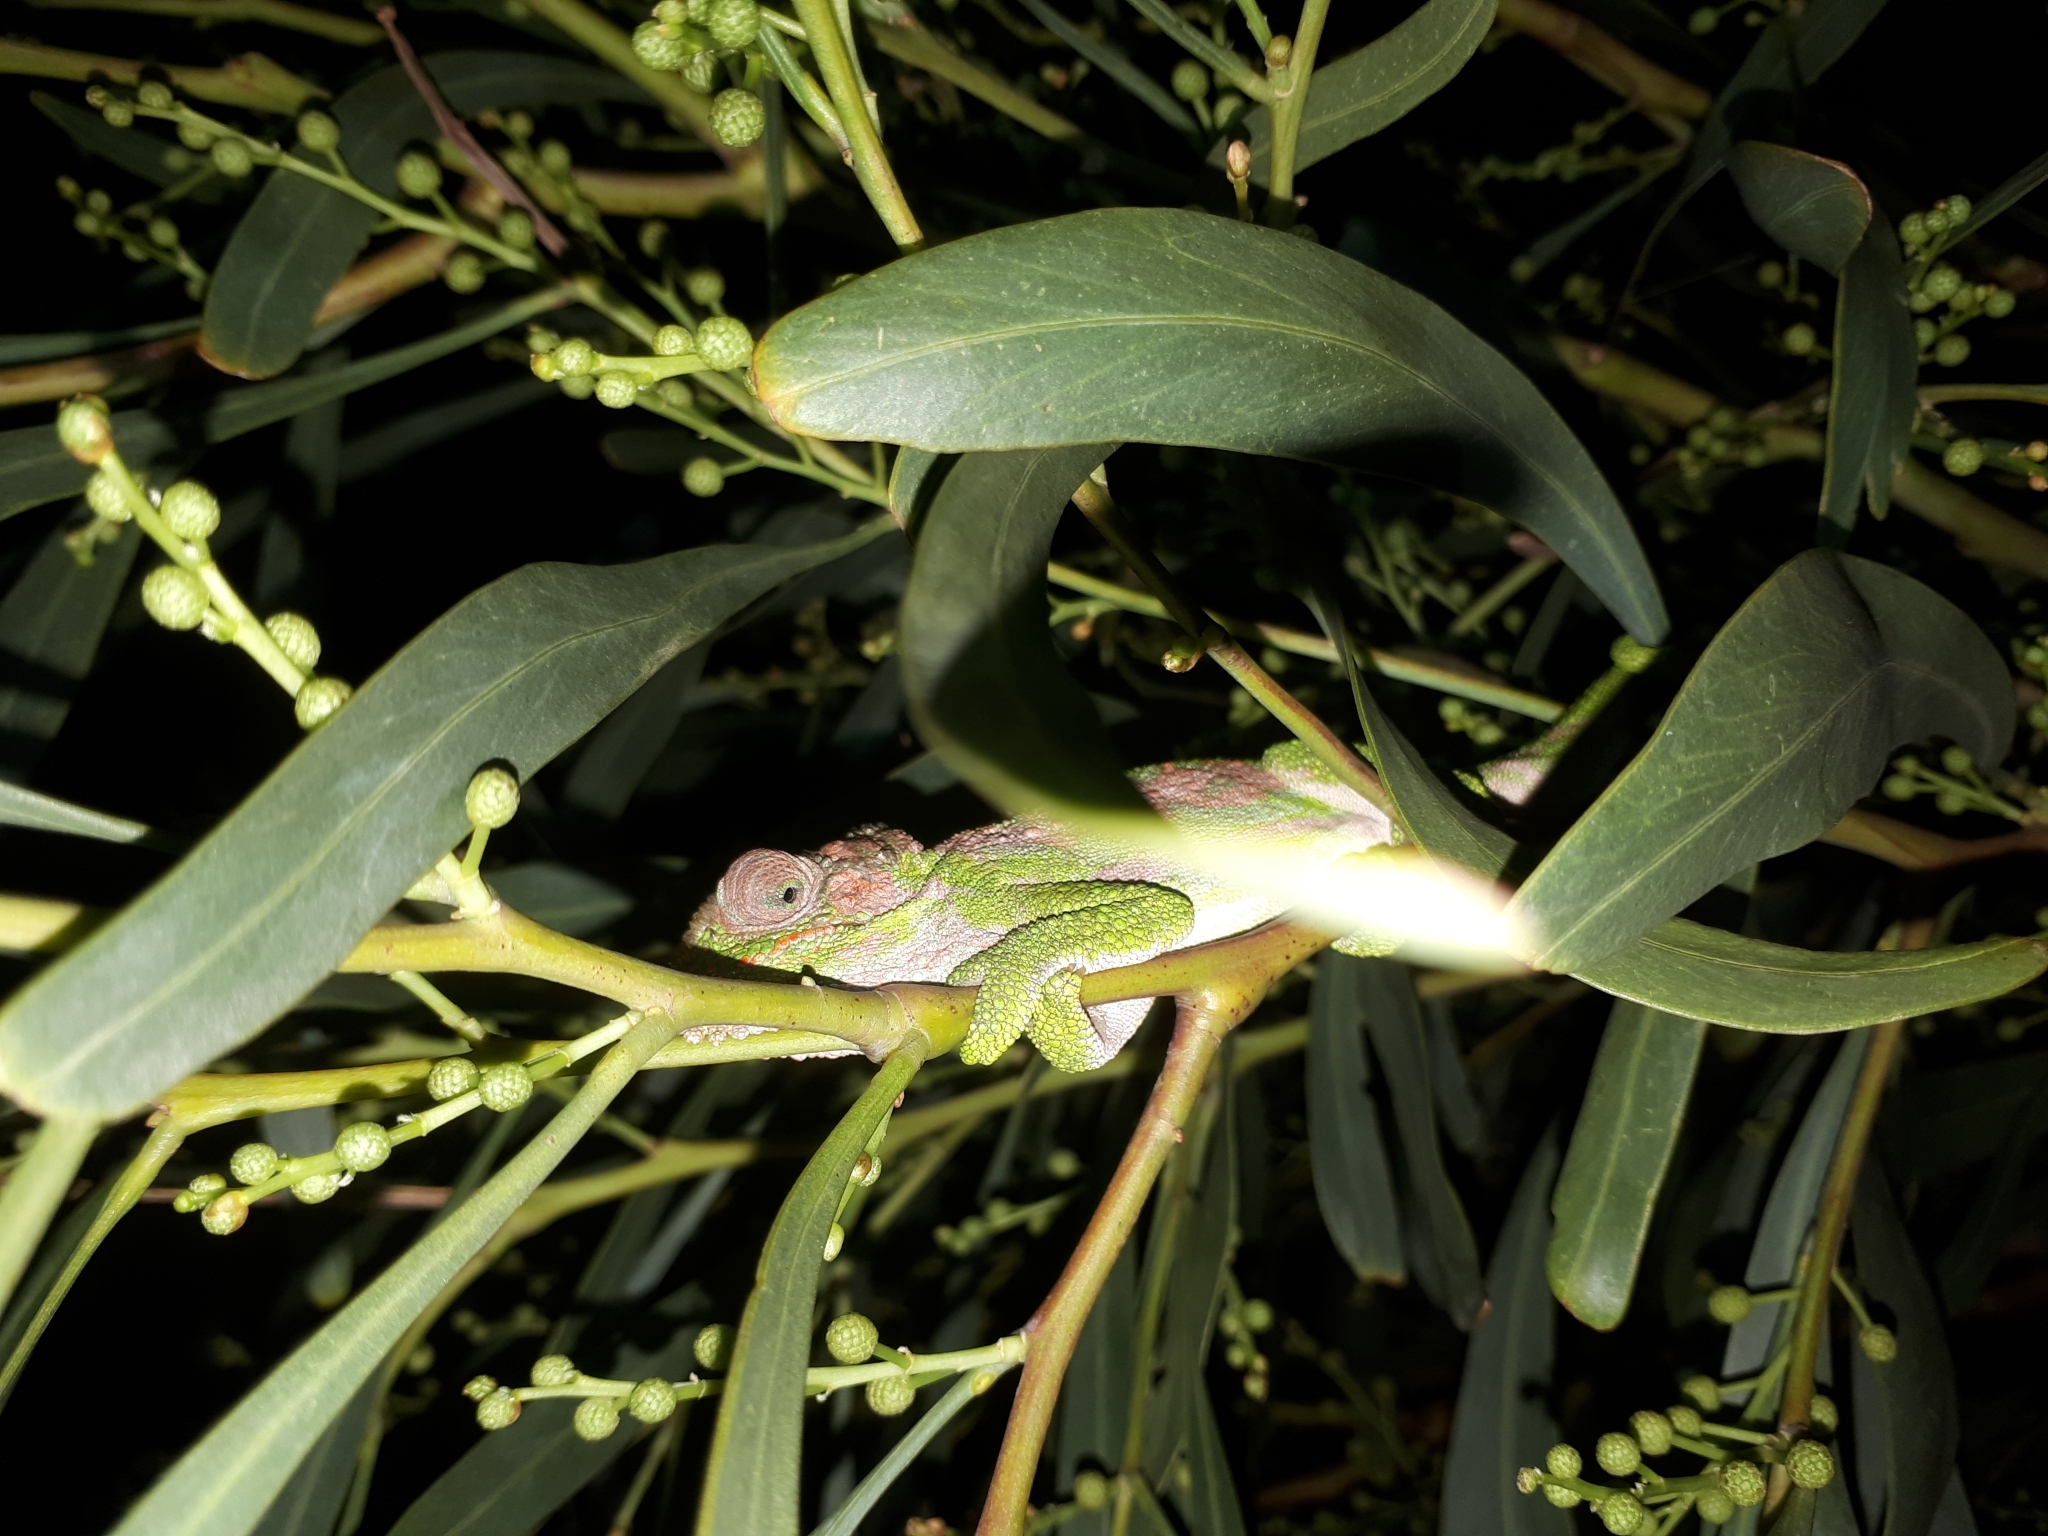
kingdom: Animalia
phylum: Chordata
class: Squamata
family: Chamaeleonidae
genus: Bradypodion
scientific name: Bradypodion pumilum
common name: Cape dwarf chameleon
